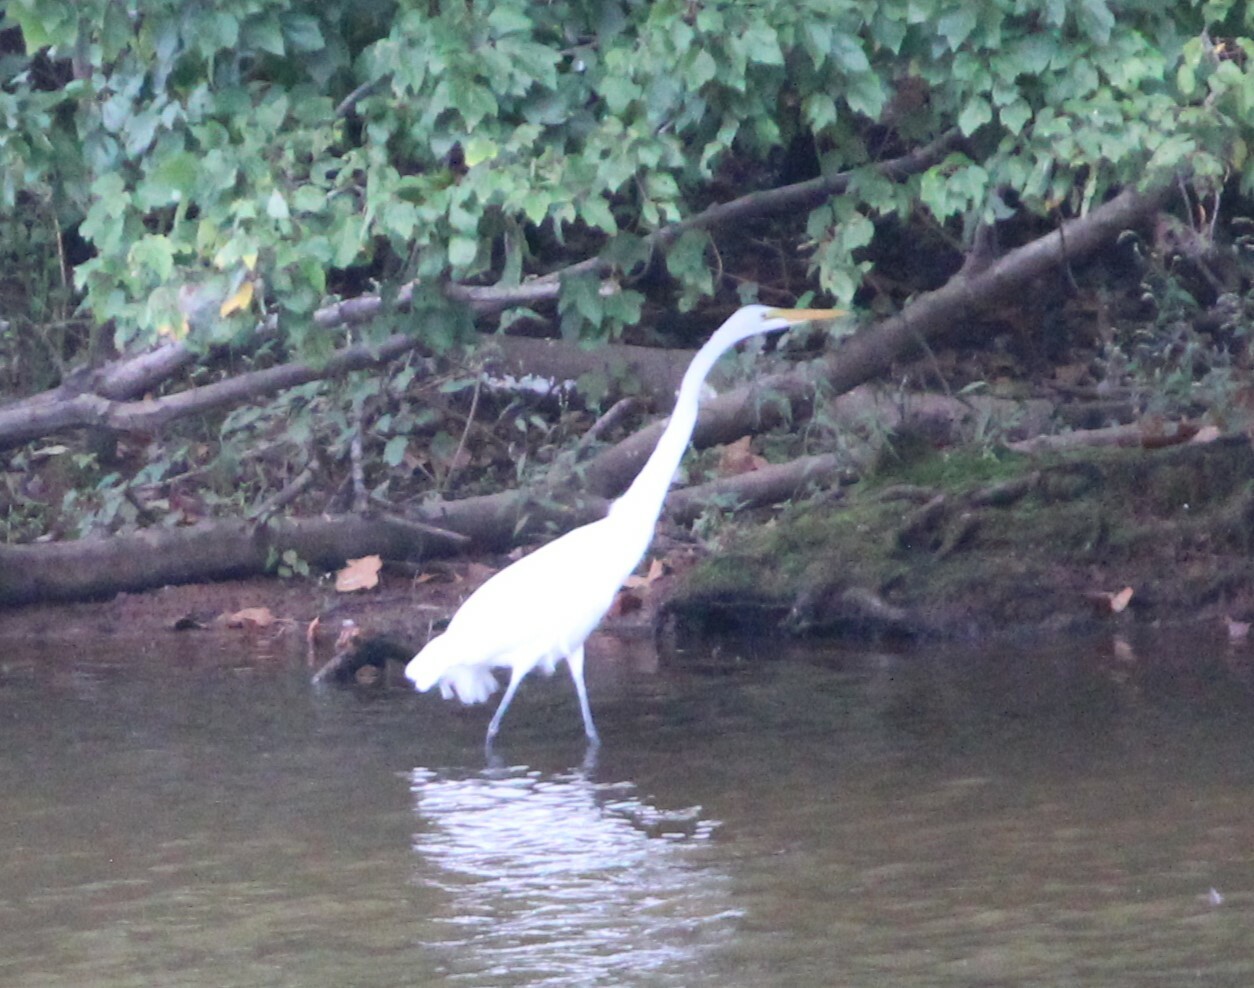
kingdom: Animalia
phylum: Chordata
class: Aves
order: Pelecaniformes
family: Ardeidae
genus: Ardea
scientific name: Ardea alba
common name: Great egret
